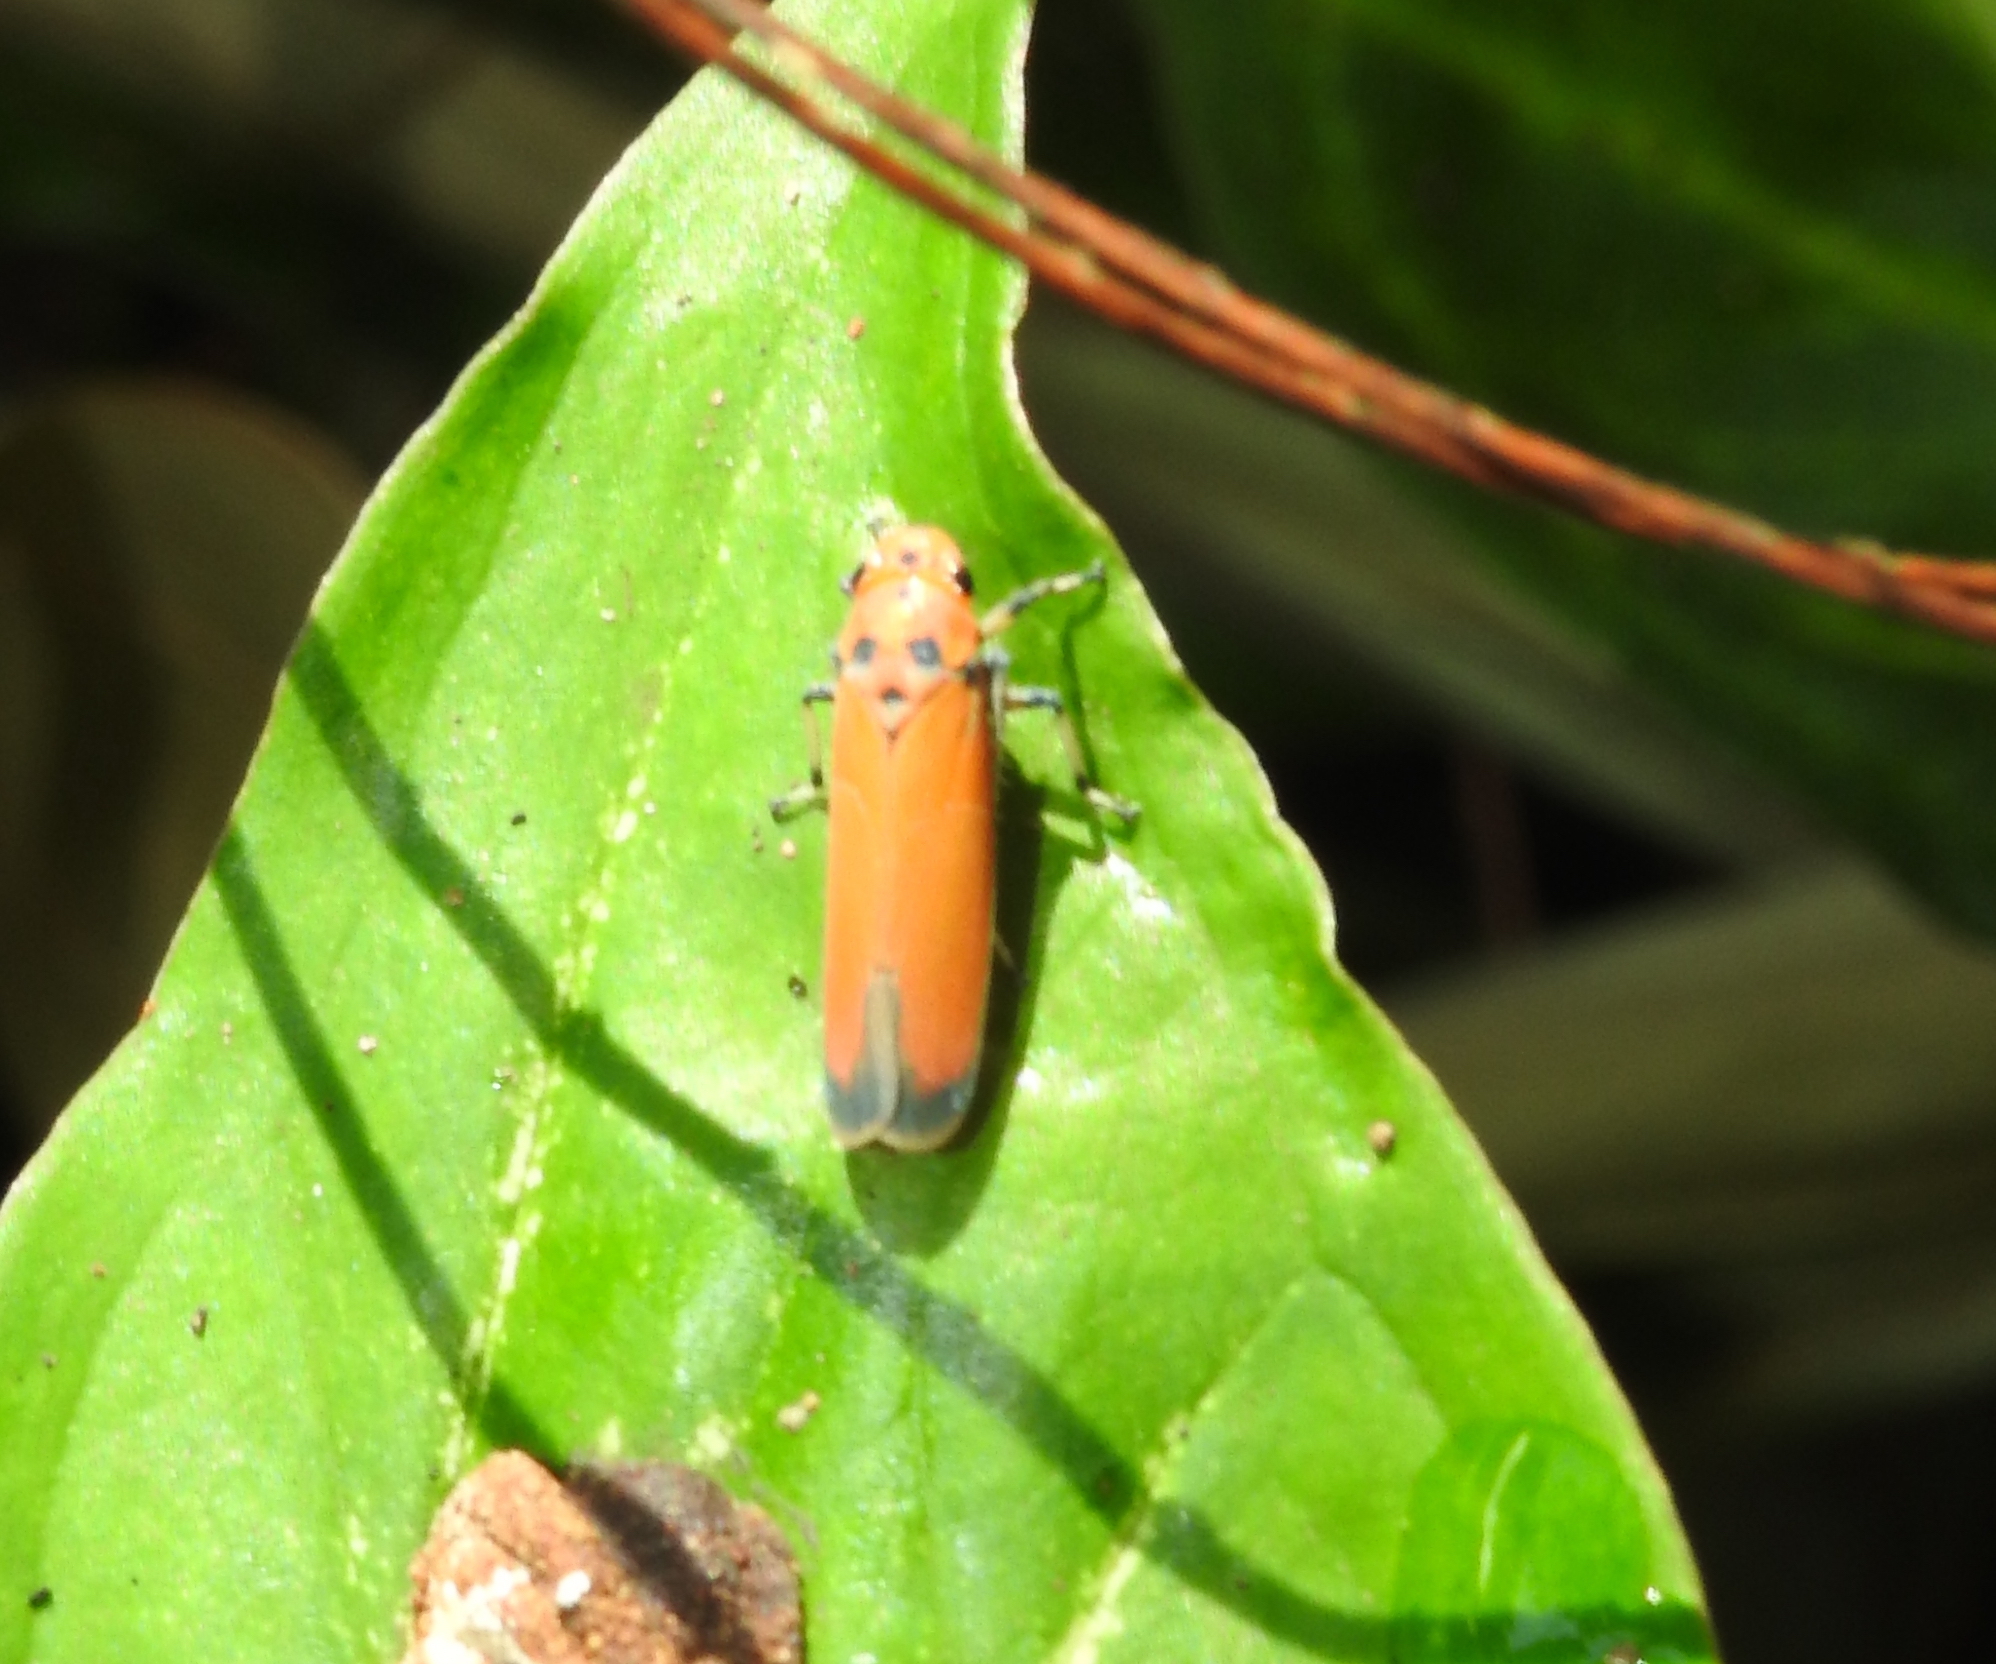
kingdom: Animalia
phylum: Arthropoda
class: Insecta
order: Hemiptera
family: Cicadellidae
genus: Bothrogonia
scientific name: Bothrogonia addita
